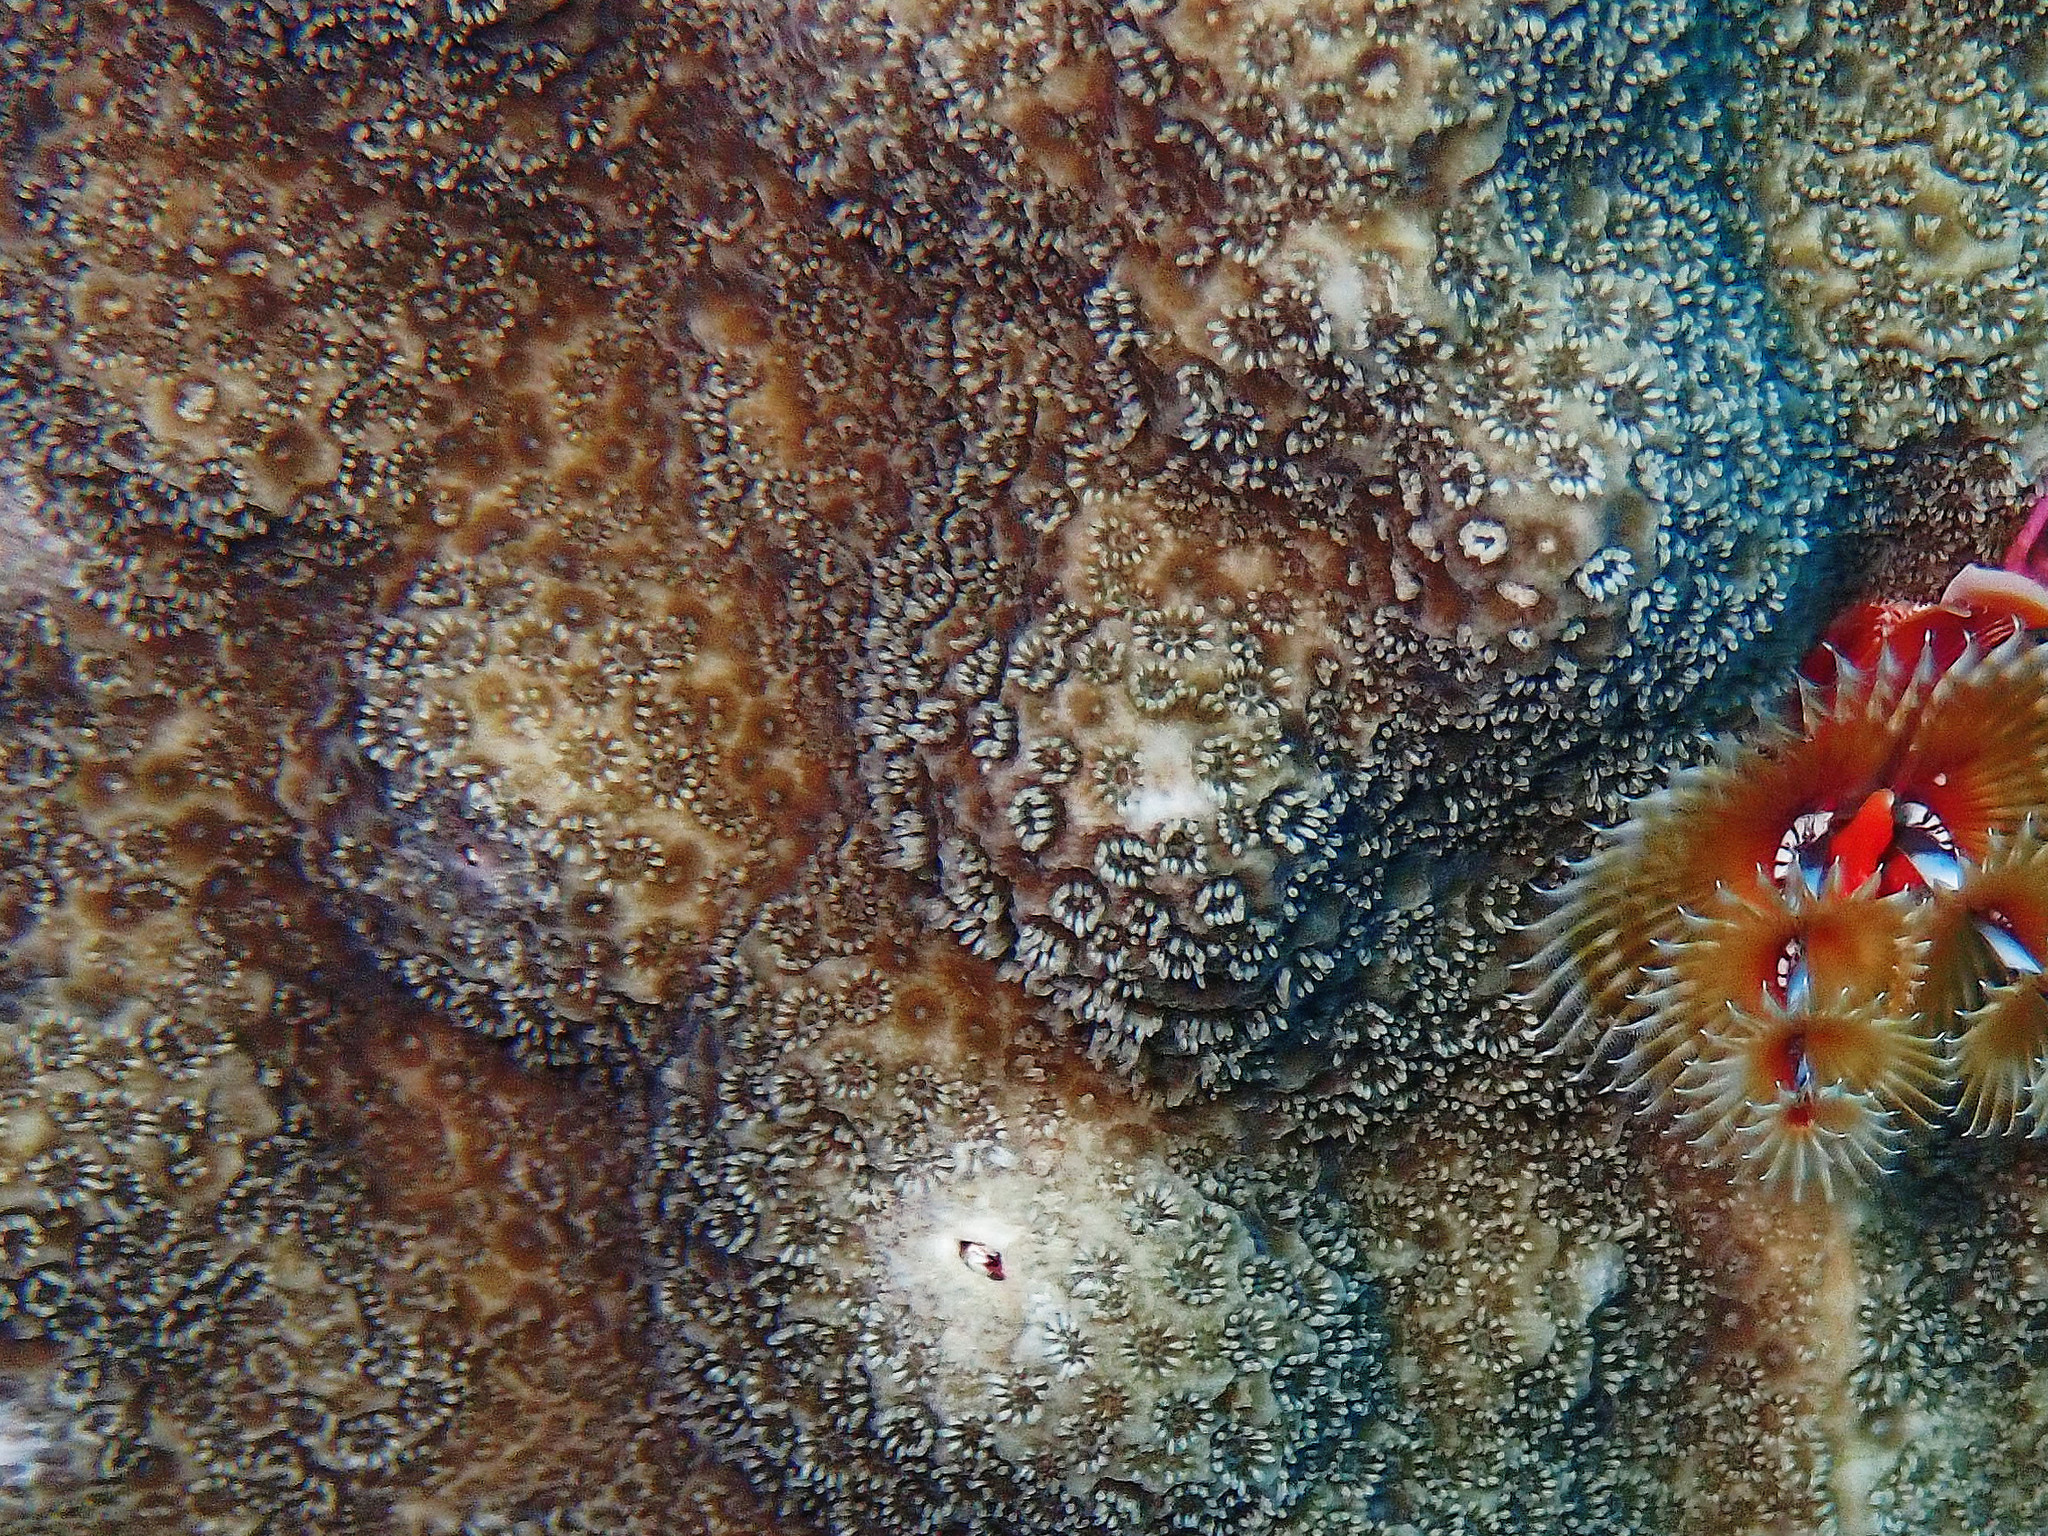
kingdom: Animalia
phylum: Cnidaria
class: Anthozoa
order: Scleractinia
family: Poritidae
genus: Porites
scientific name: Porites astreoides
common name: Mustard hill coral
